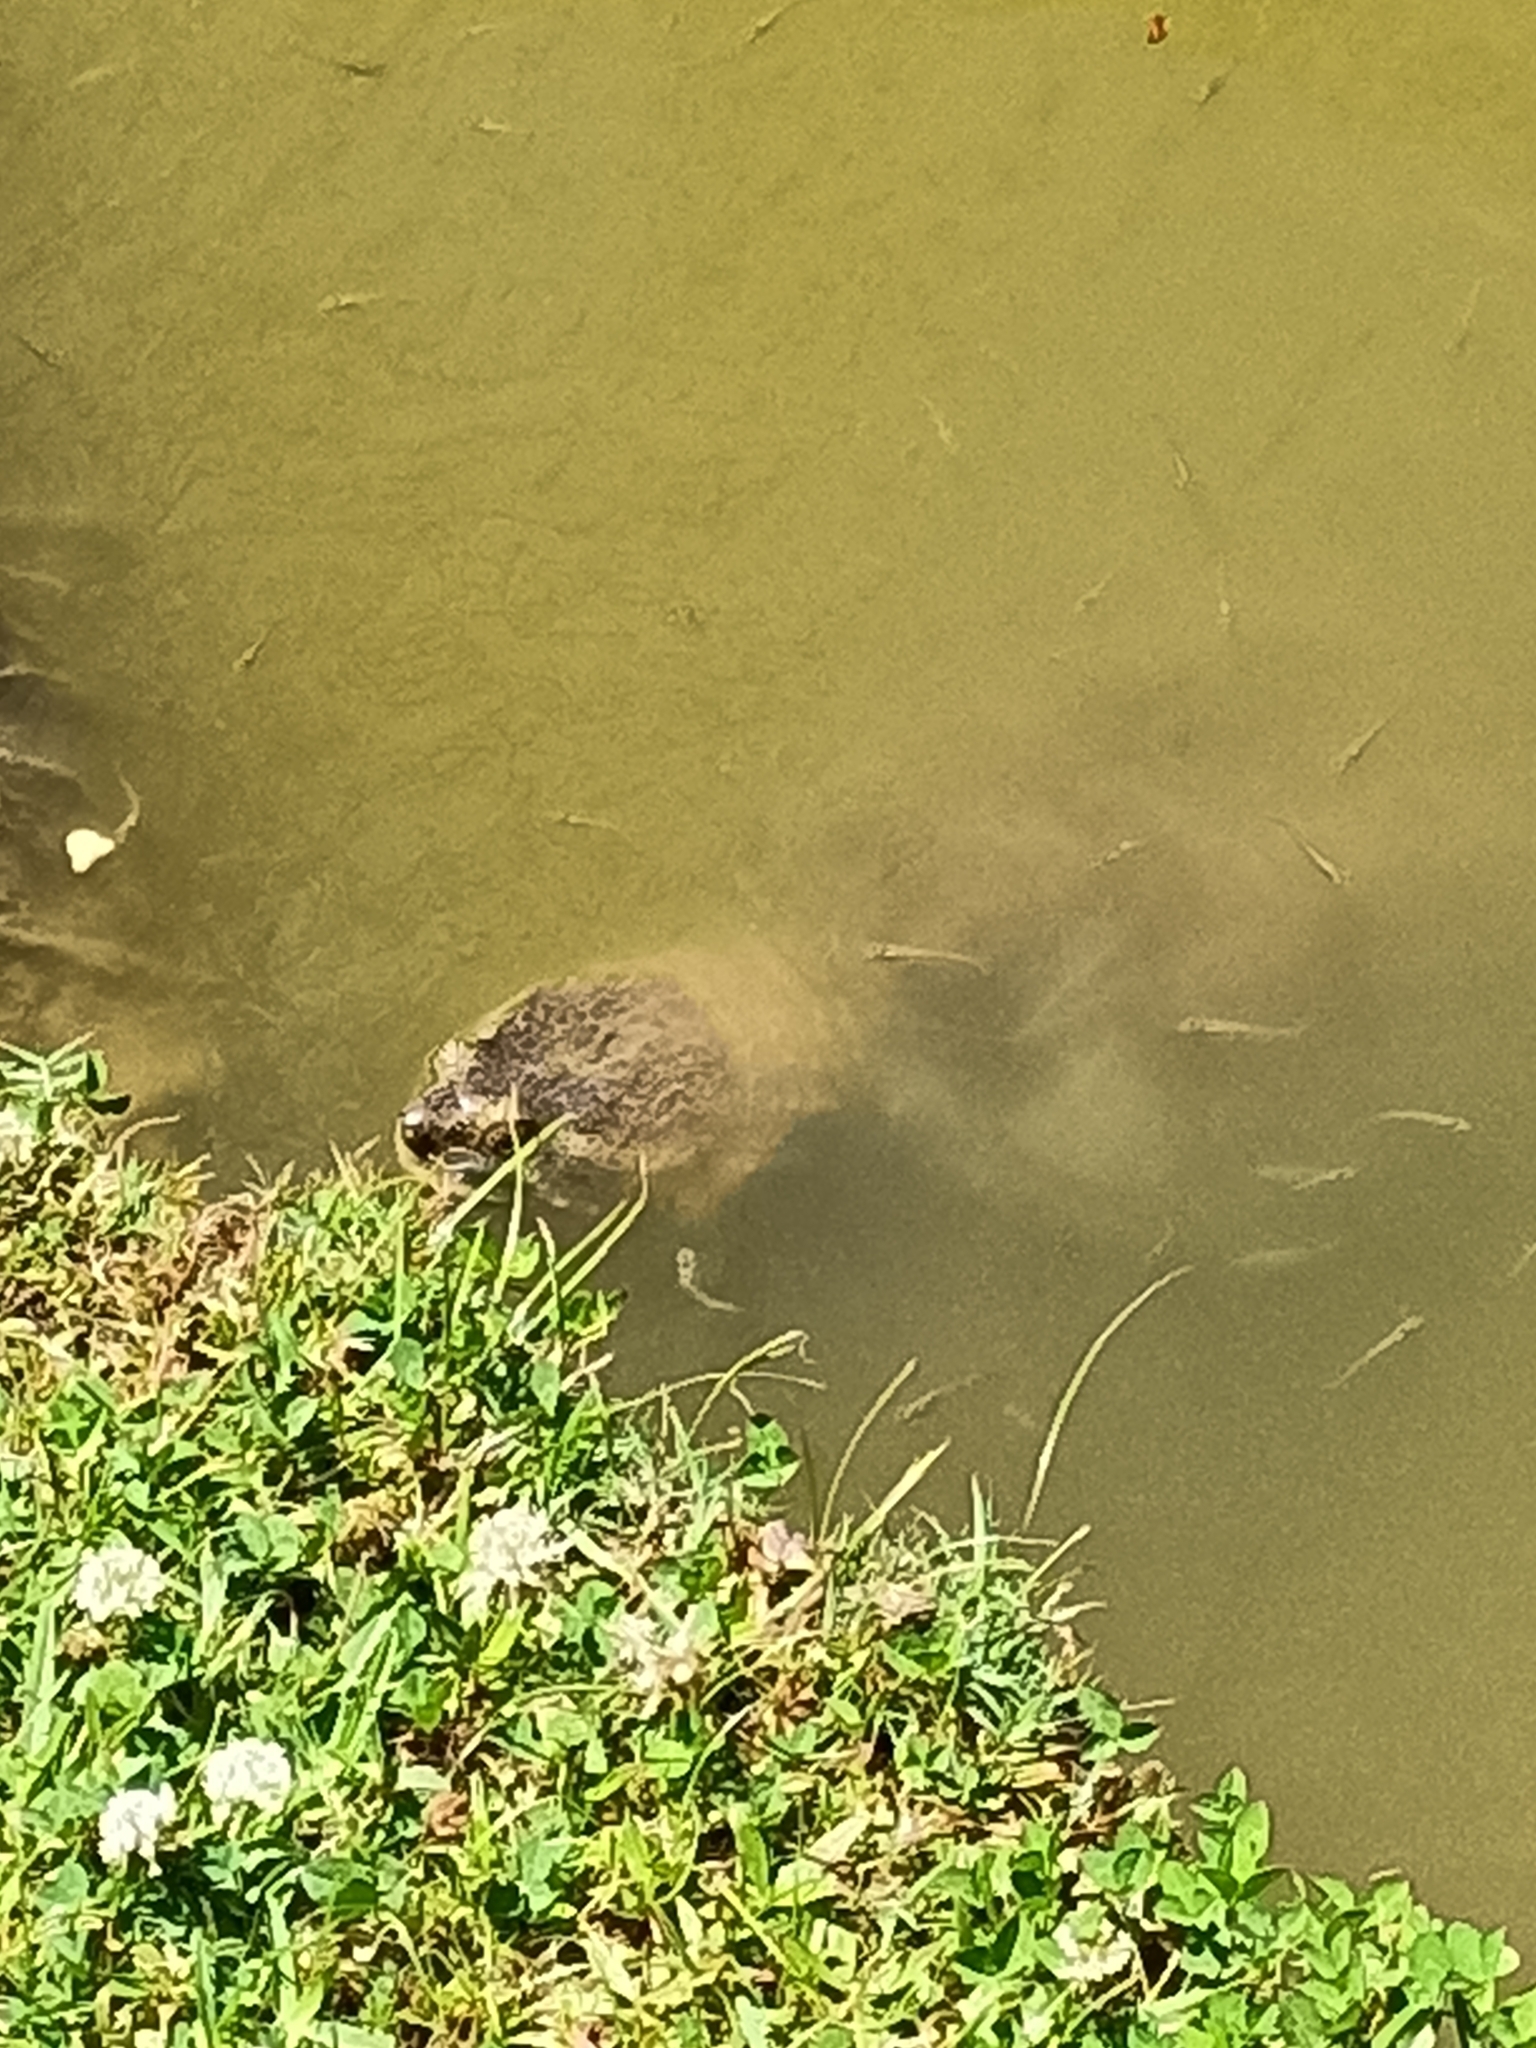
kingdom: Animalia
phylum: Chordata
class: Testudines
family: Chelydridae
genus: Chelydra
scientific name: Chelydra serpentina
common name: Common snapping turtle
